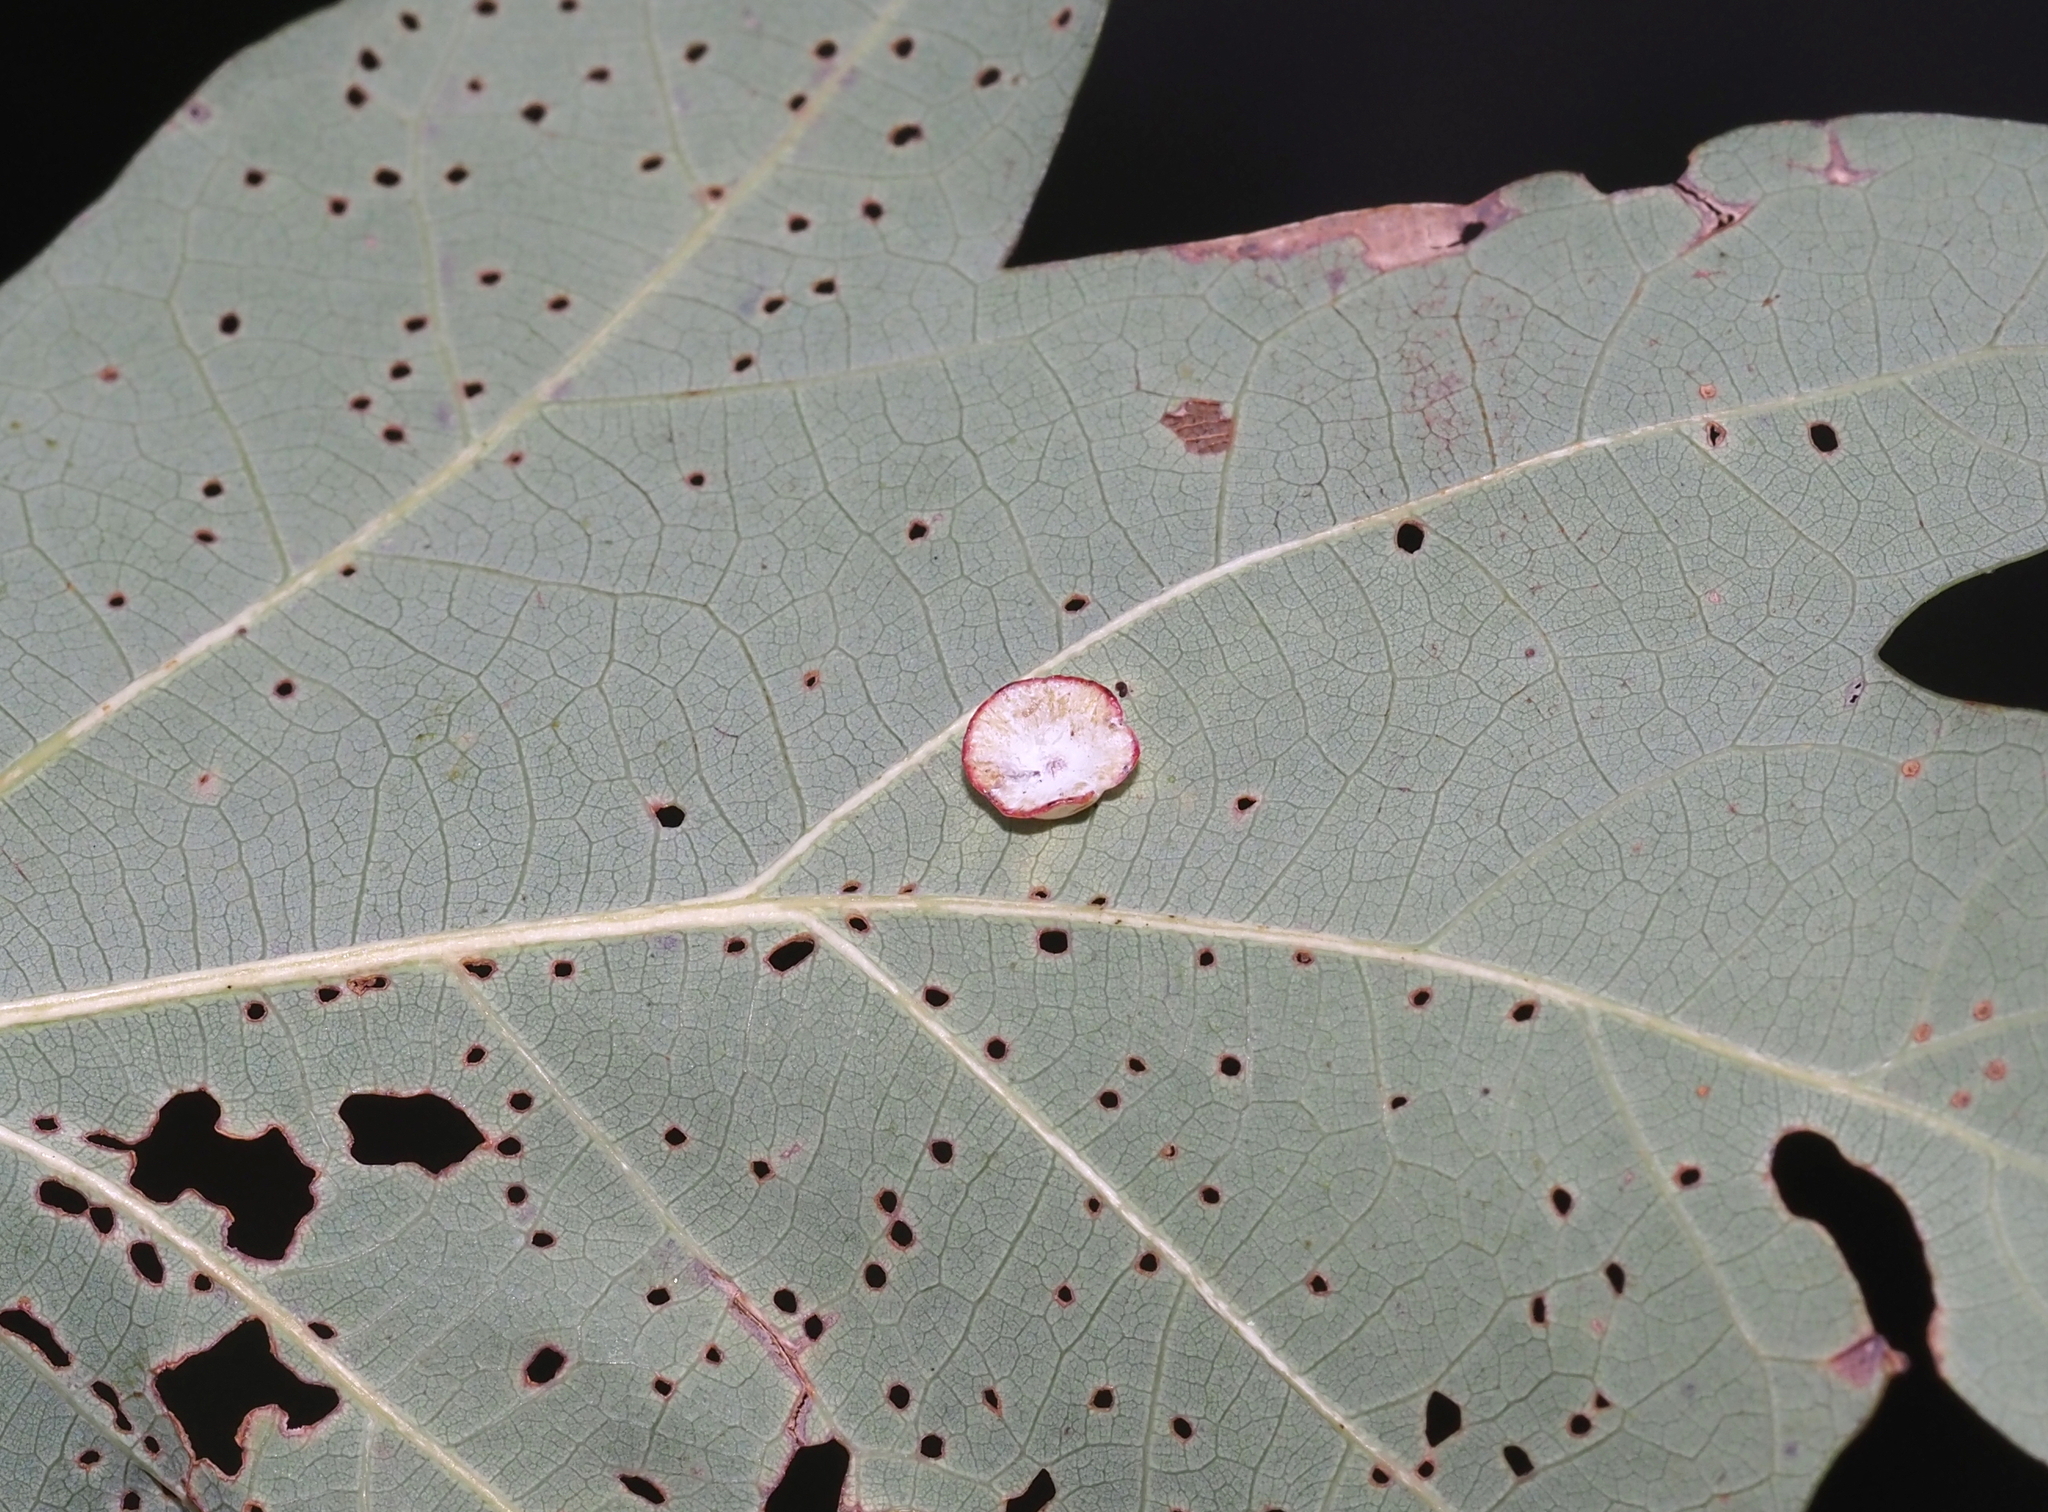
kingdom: Animalia
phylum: Arthropoda
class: Insecta
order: Hymenoptera
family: Cynipidae
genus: Phylloteras
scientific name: Phylloteras poculum
